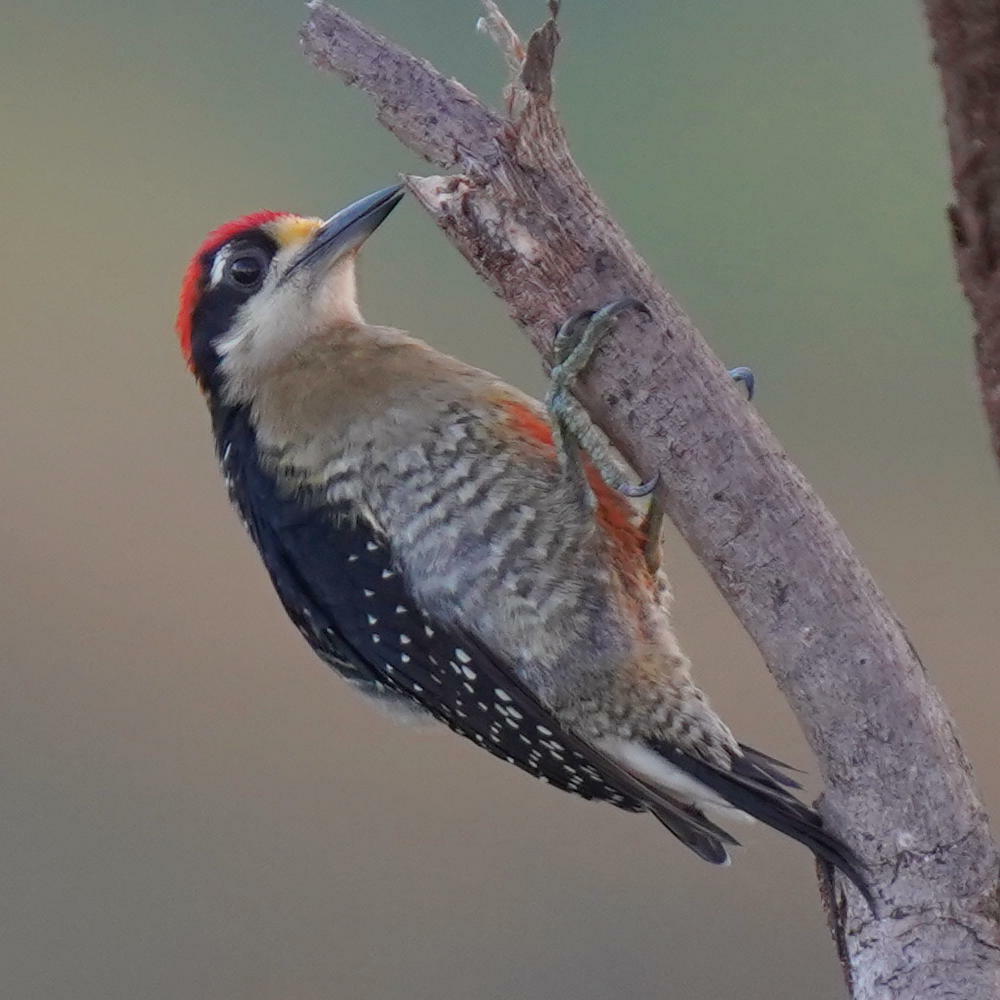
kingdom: Animalia
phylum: Chordata
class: Aves
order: Piciformes
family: Picidae
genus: Melanerpes
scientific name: Melanerpes pucherani
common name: Black-cheeked woodpecker
